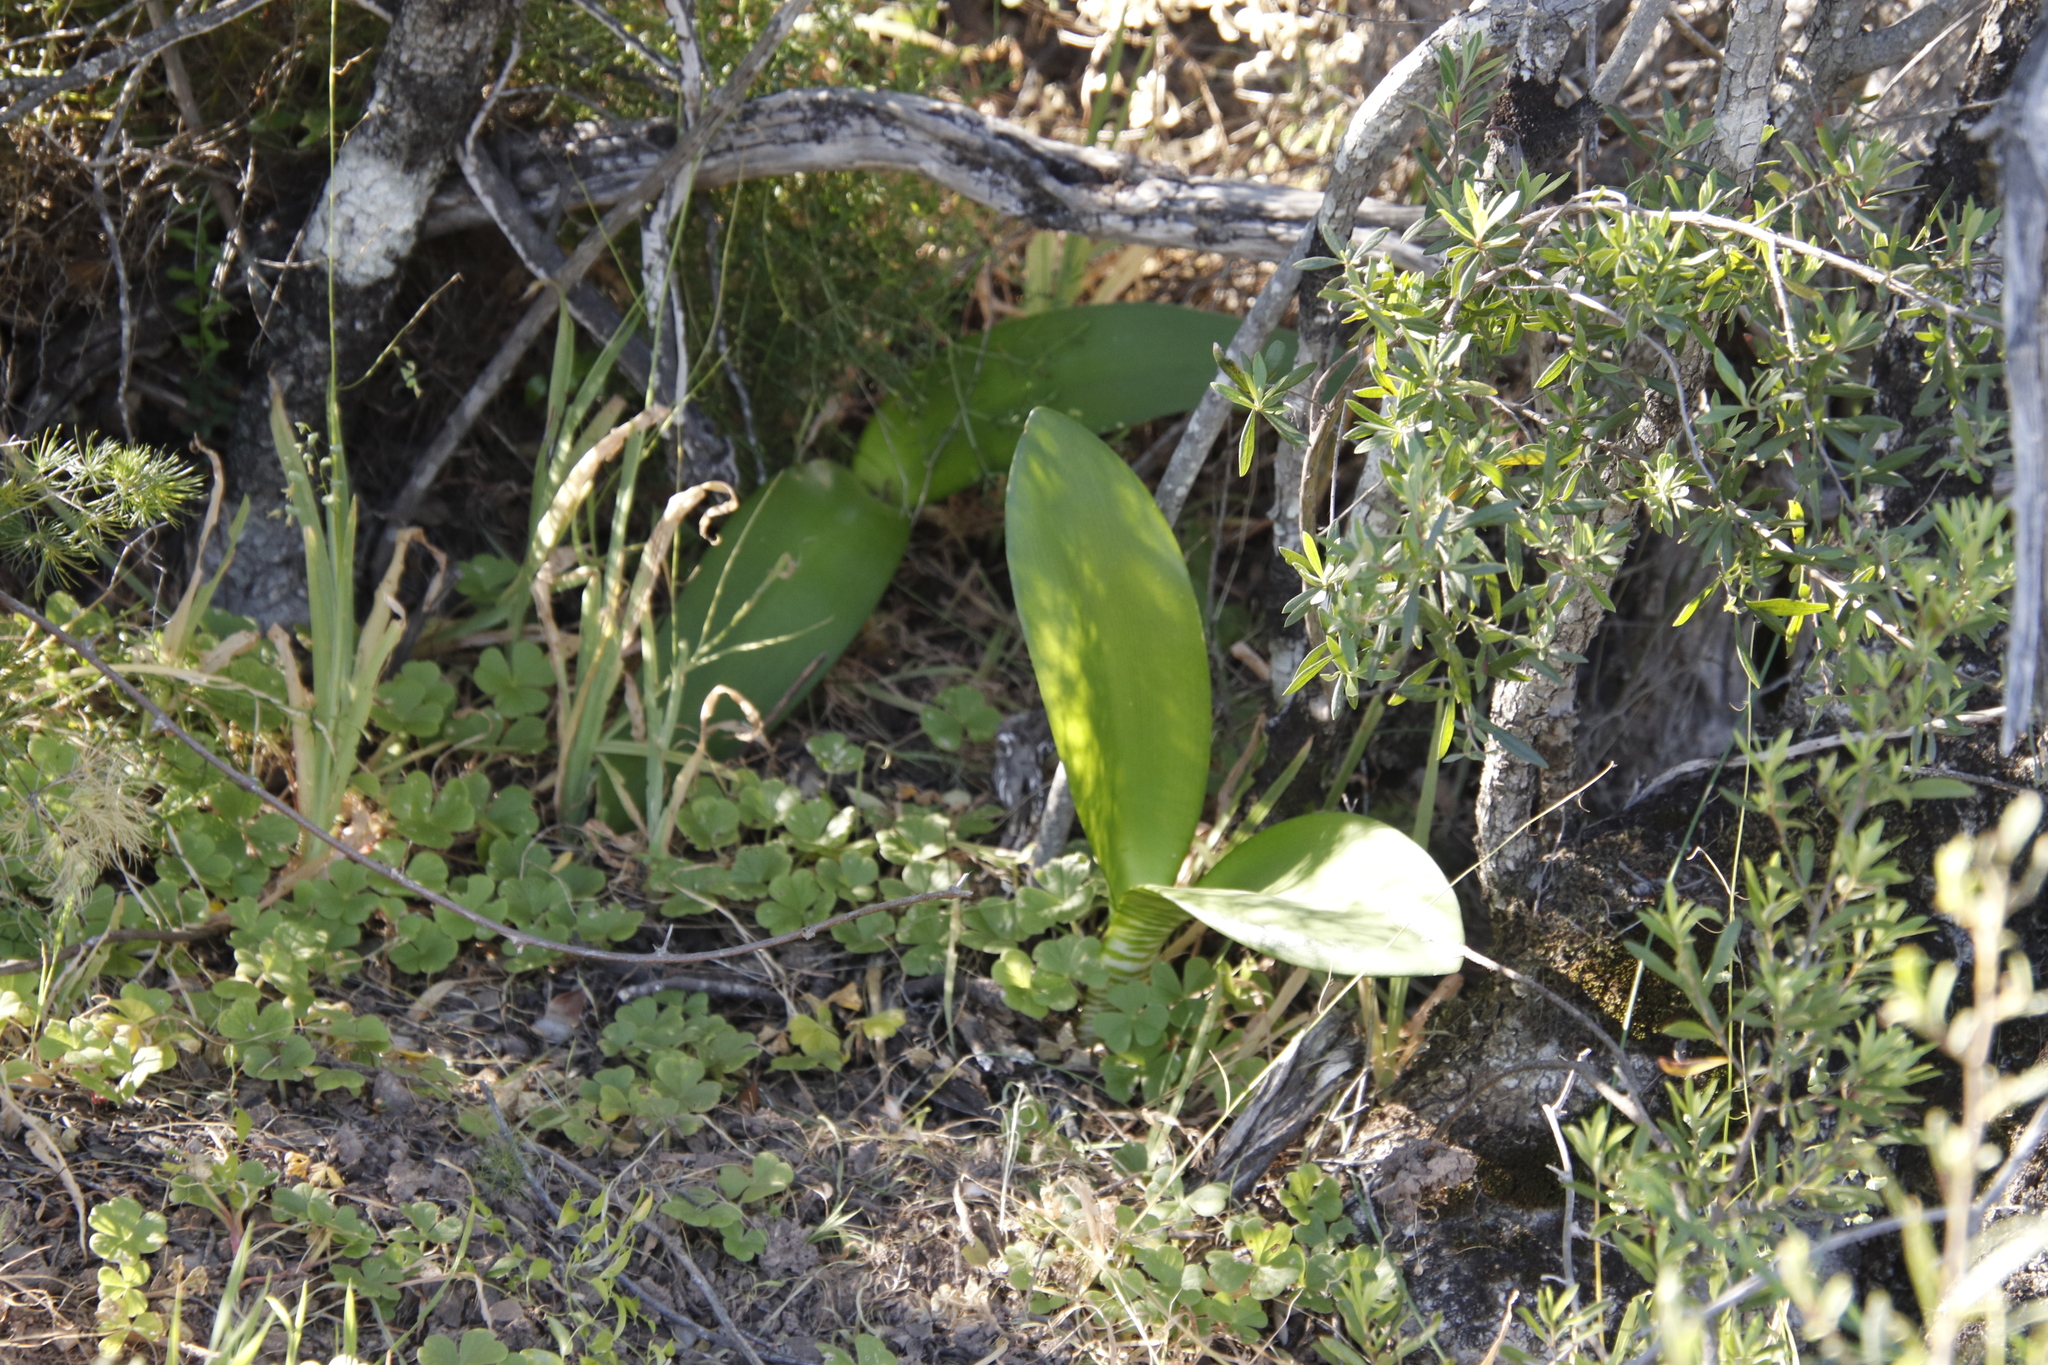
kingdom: Plantae
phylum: Tracheophyta
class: Liliopsida
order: Asparagales
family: Amaryllidaceae
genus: Haemanthus
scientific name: Haemanthus coccineus
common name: Cape-tulip
